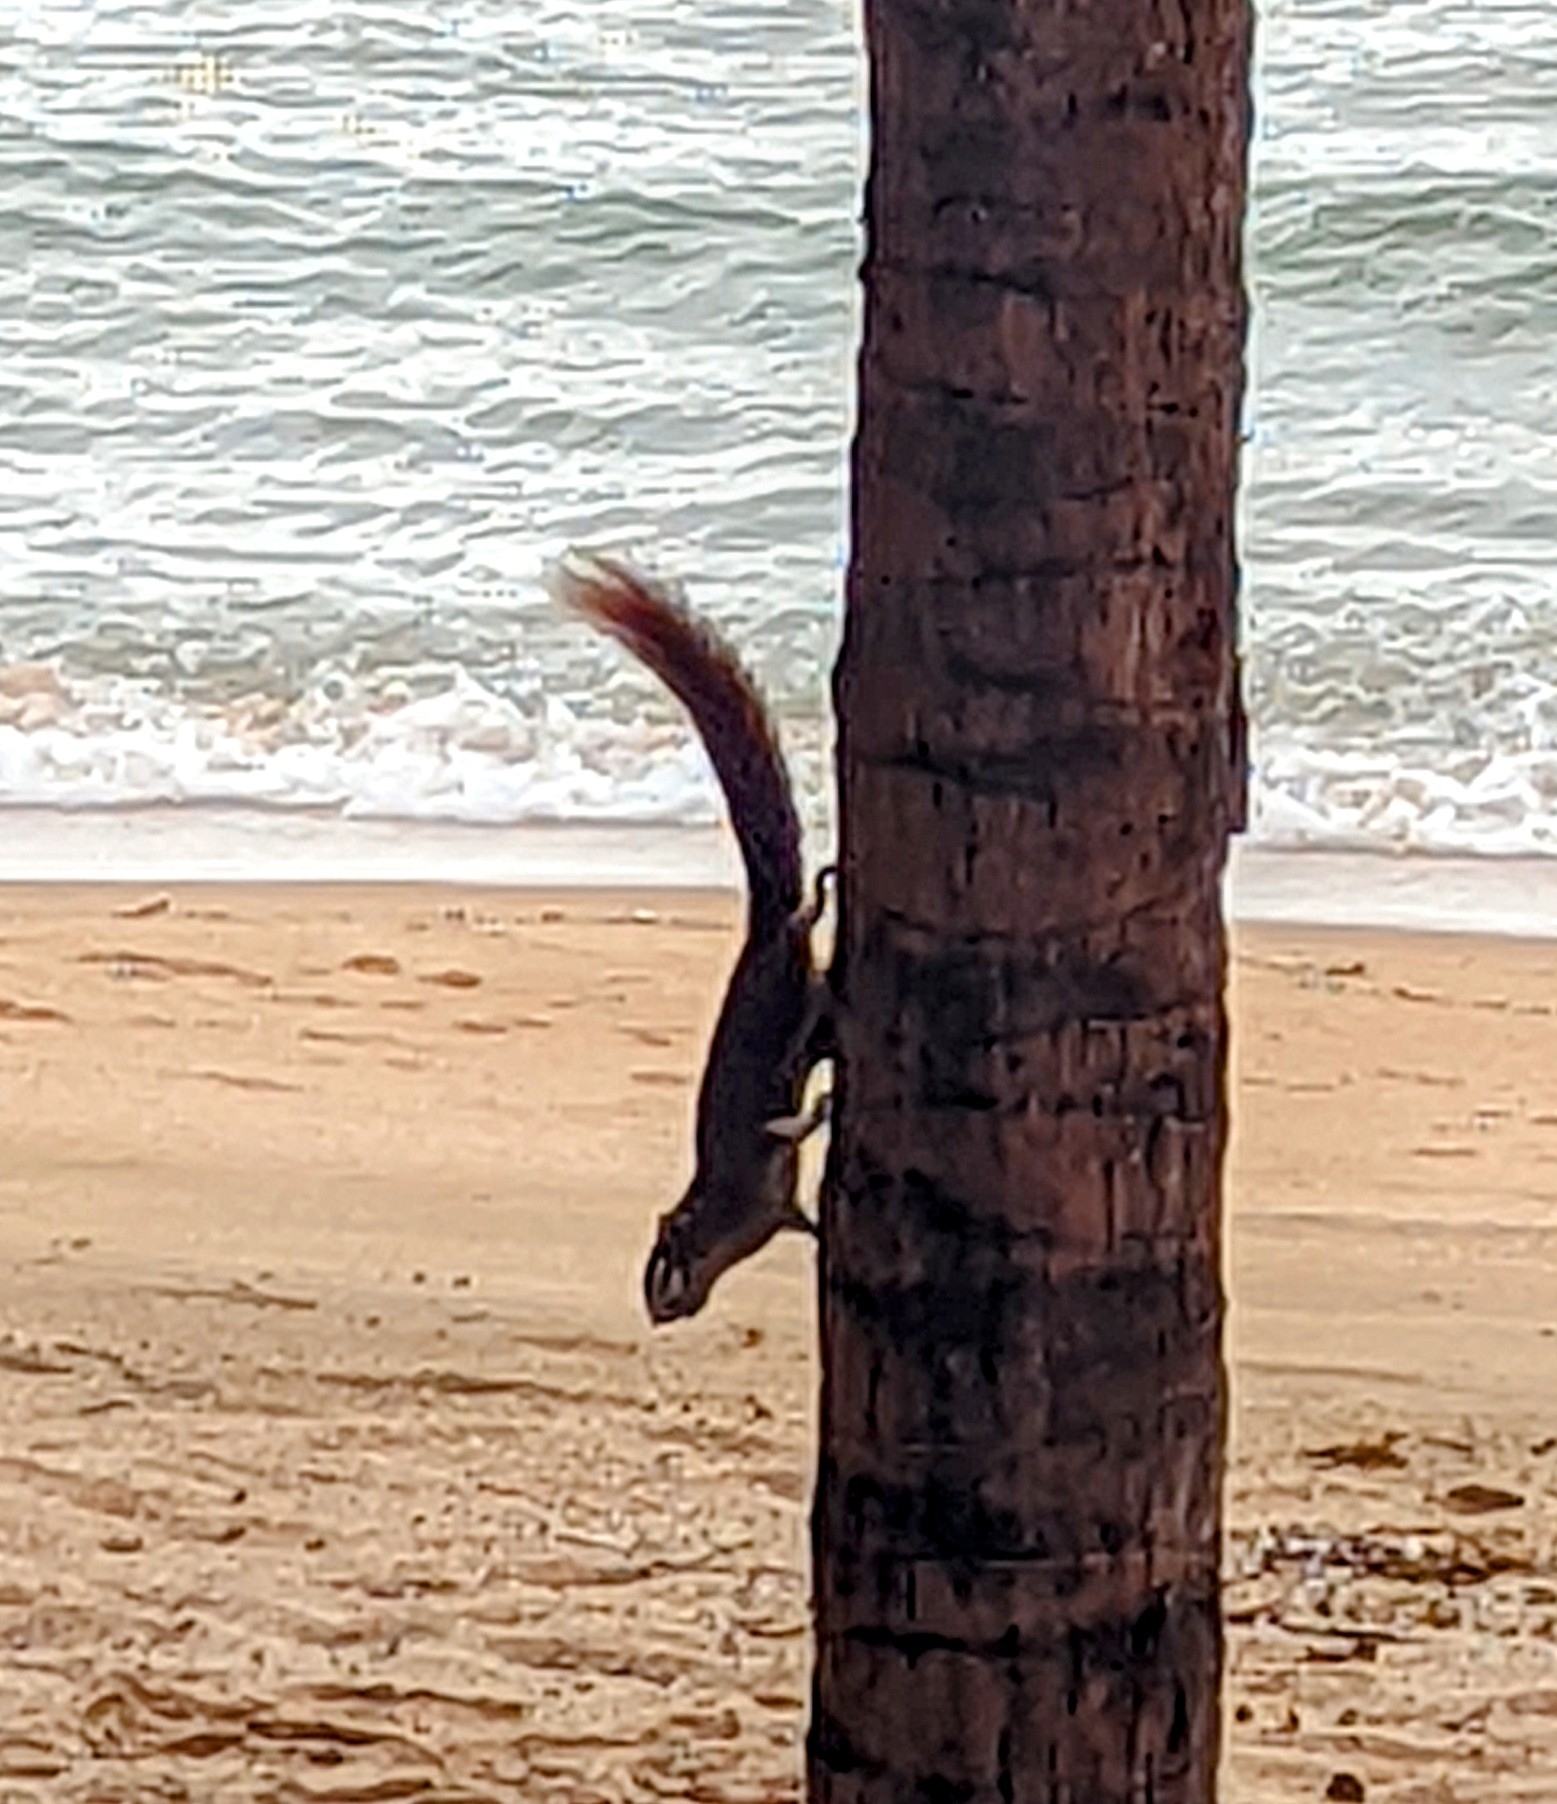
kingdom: Animalia
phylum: Chordata
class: Mammalia
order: Rodentia
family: Sciuridae
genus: Callosciurus
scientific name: Callosciurus finlaysonii
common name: Finlayson's squirrel
